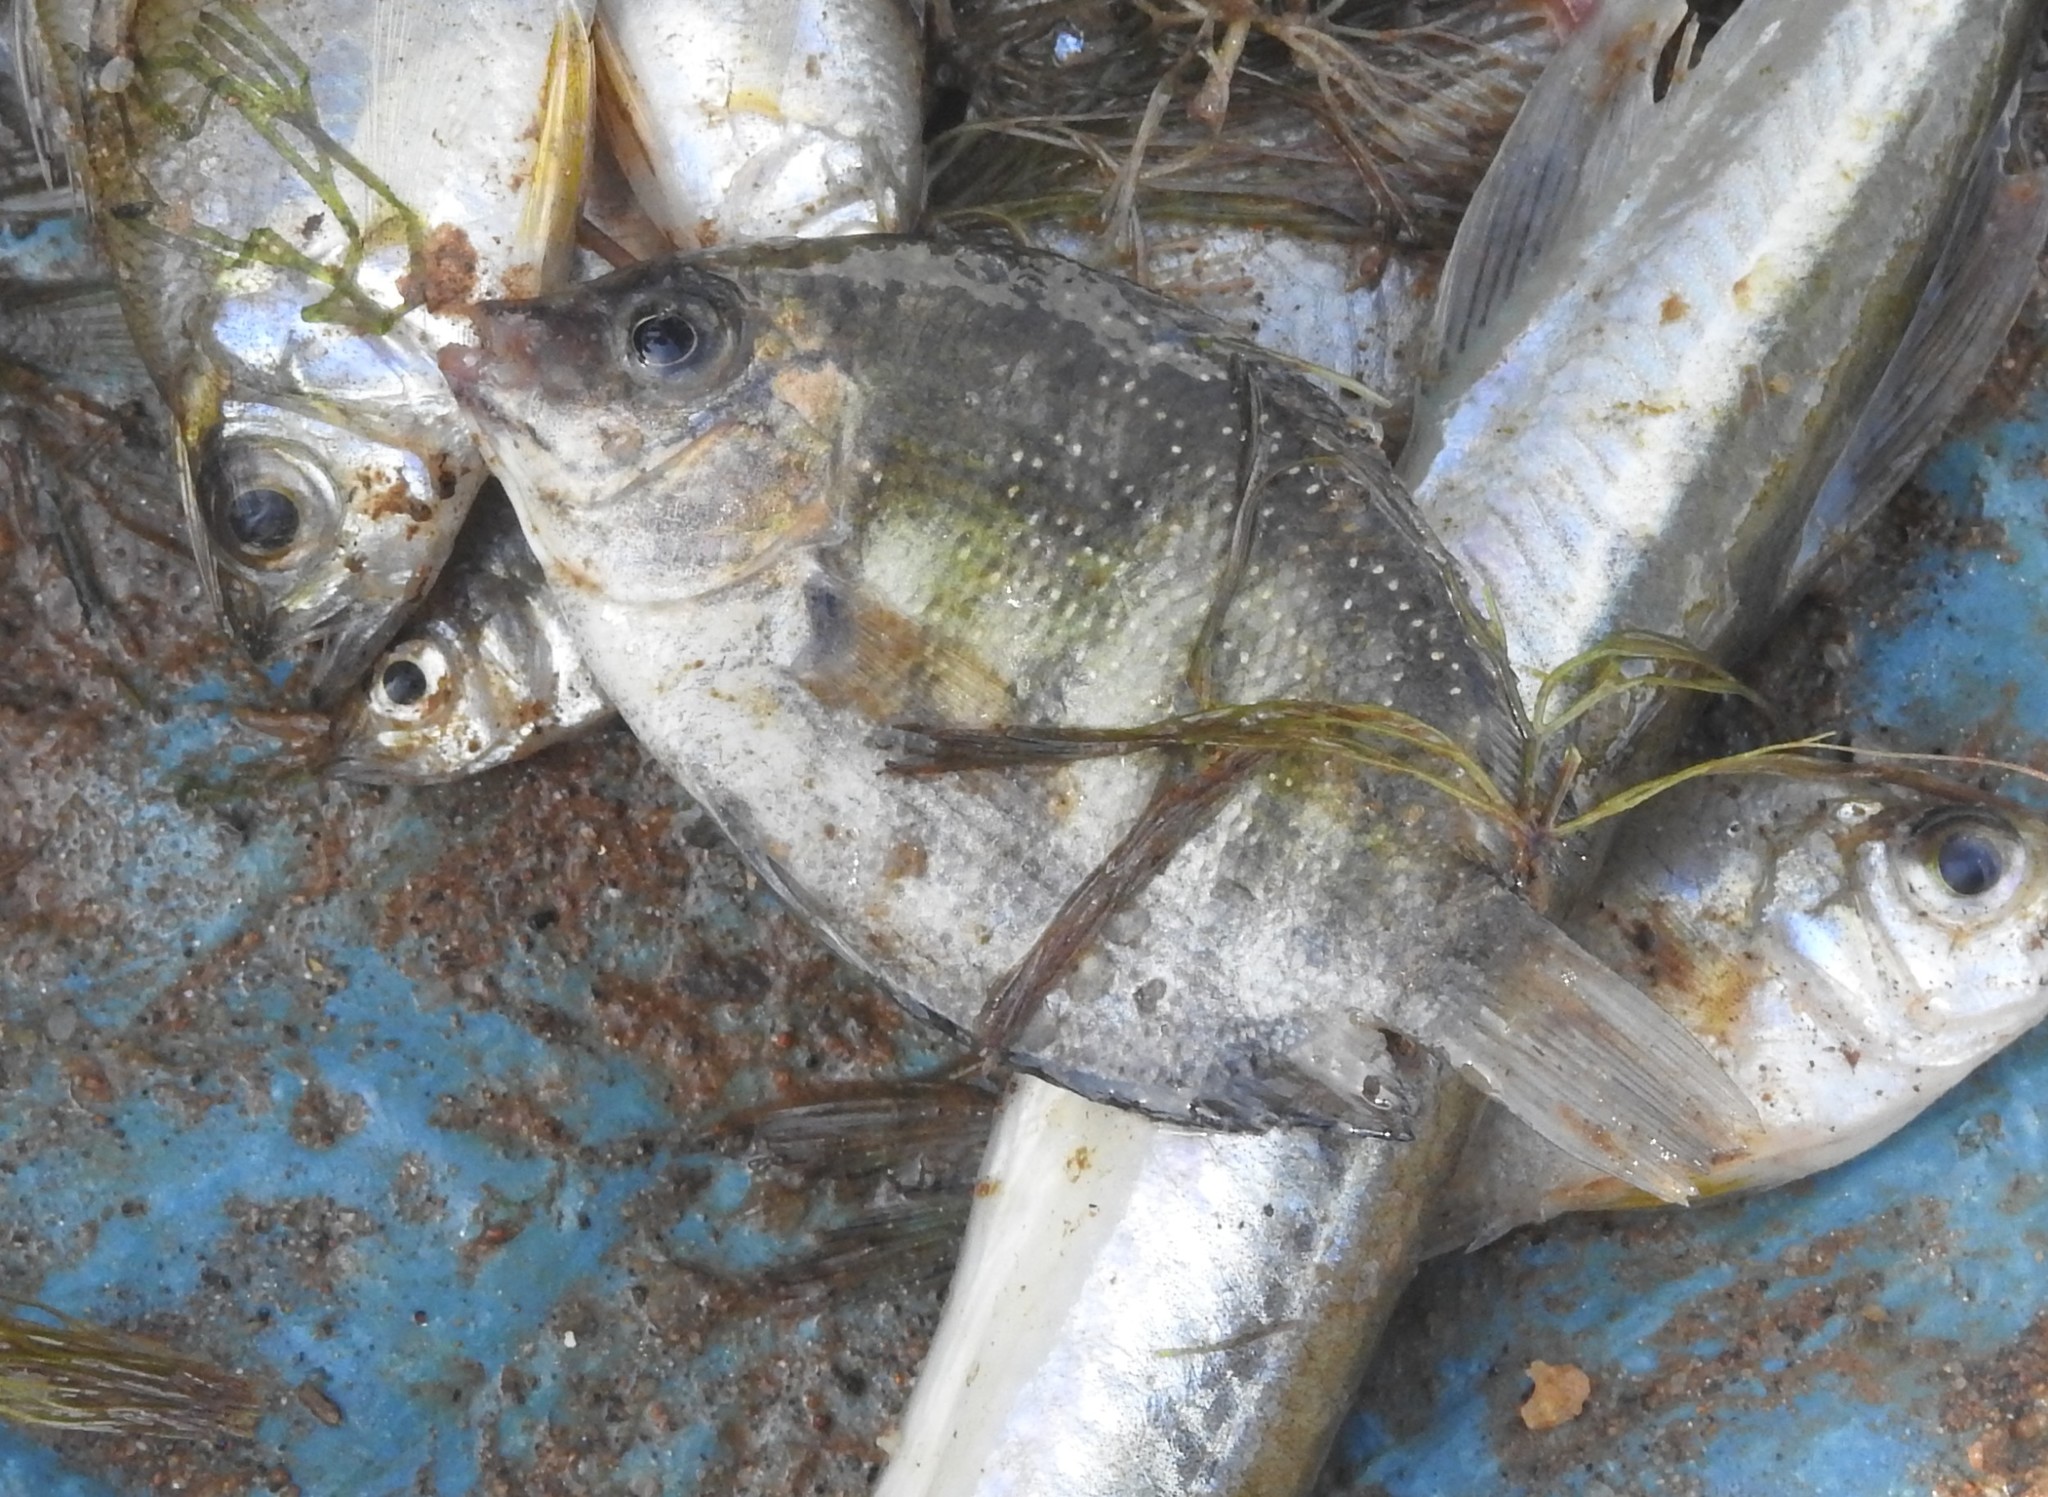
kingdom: Animalia
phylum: Chordata
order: Perciformes
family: Cichlidae
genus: Etroplus
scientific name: Etroplus suratensis
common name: Green chromide
